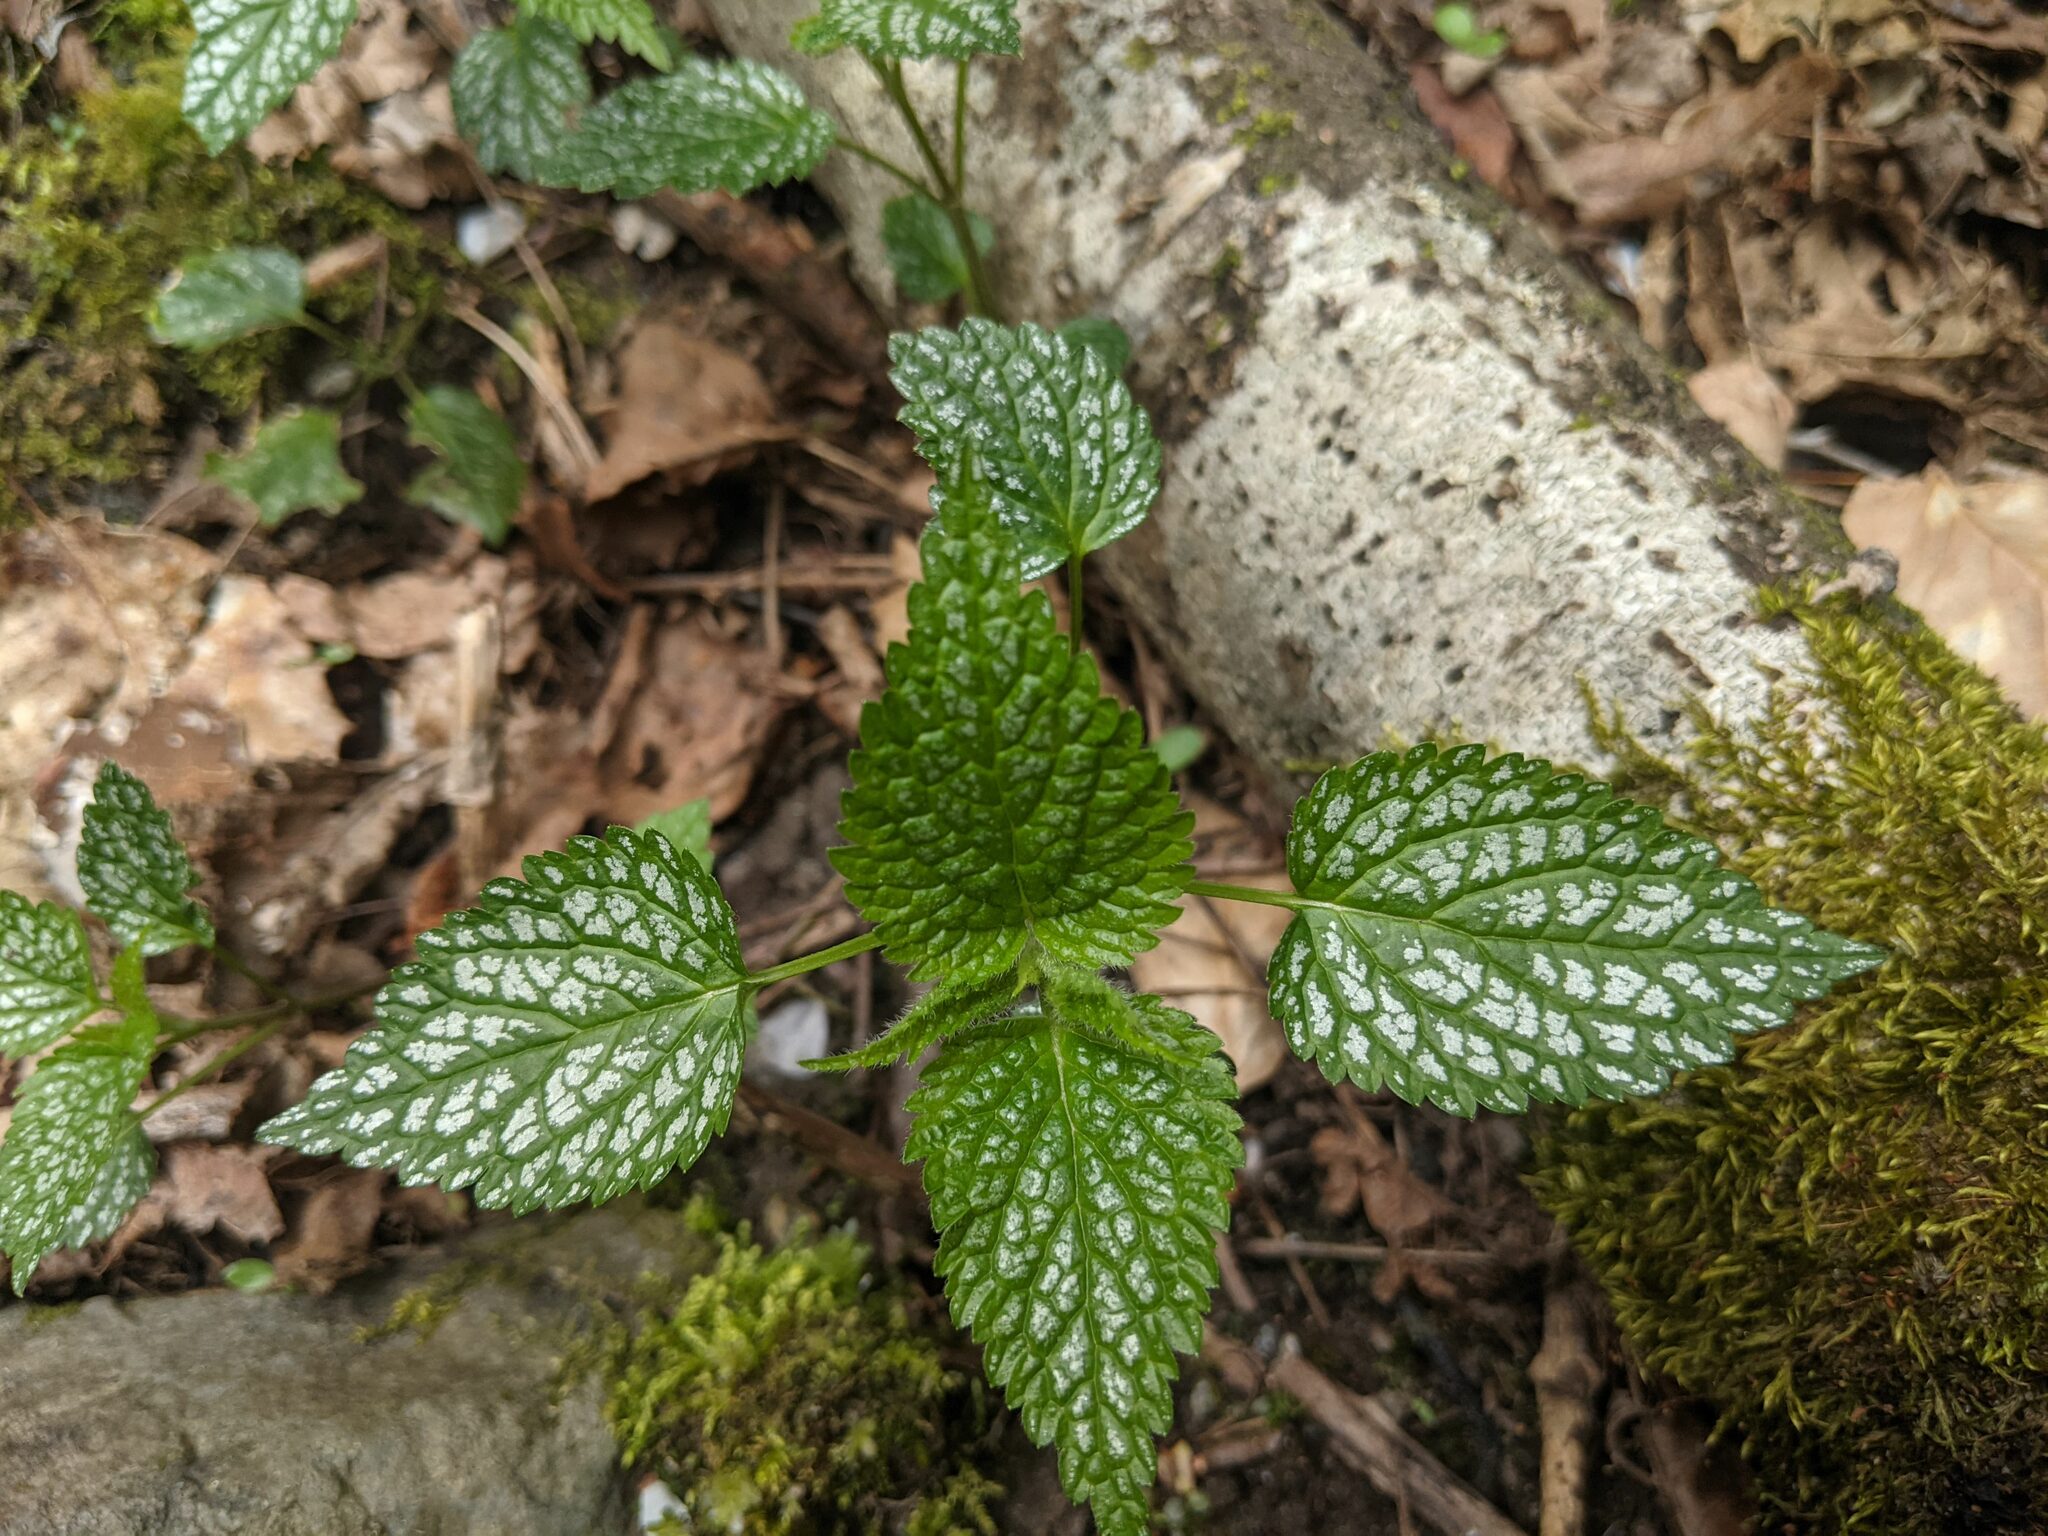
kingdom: Plantae
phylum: Tracheophyta
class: Magnoliopsida
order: Lamiales
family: Lamiaceae
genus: Lamium
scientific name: Lamium galeobdolon
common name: Yellow archangel
